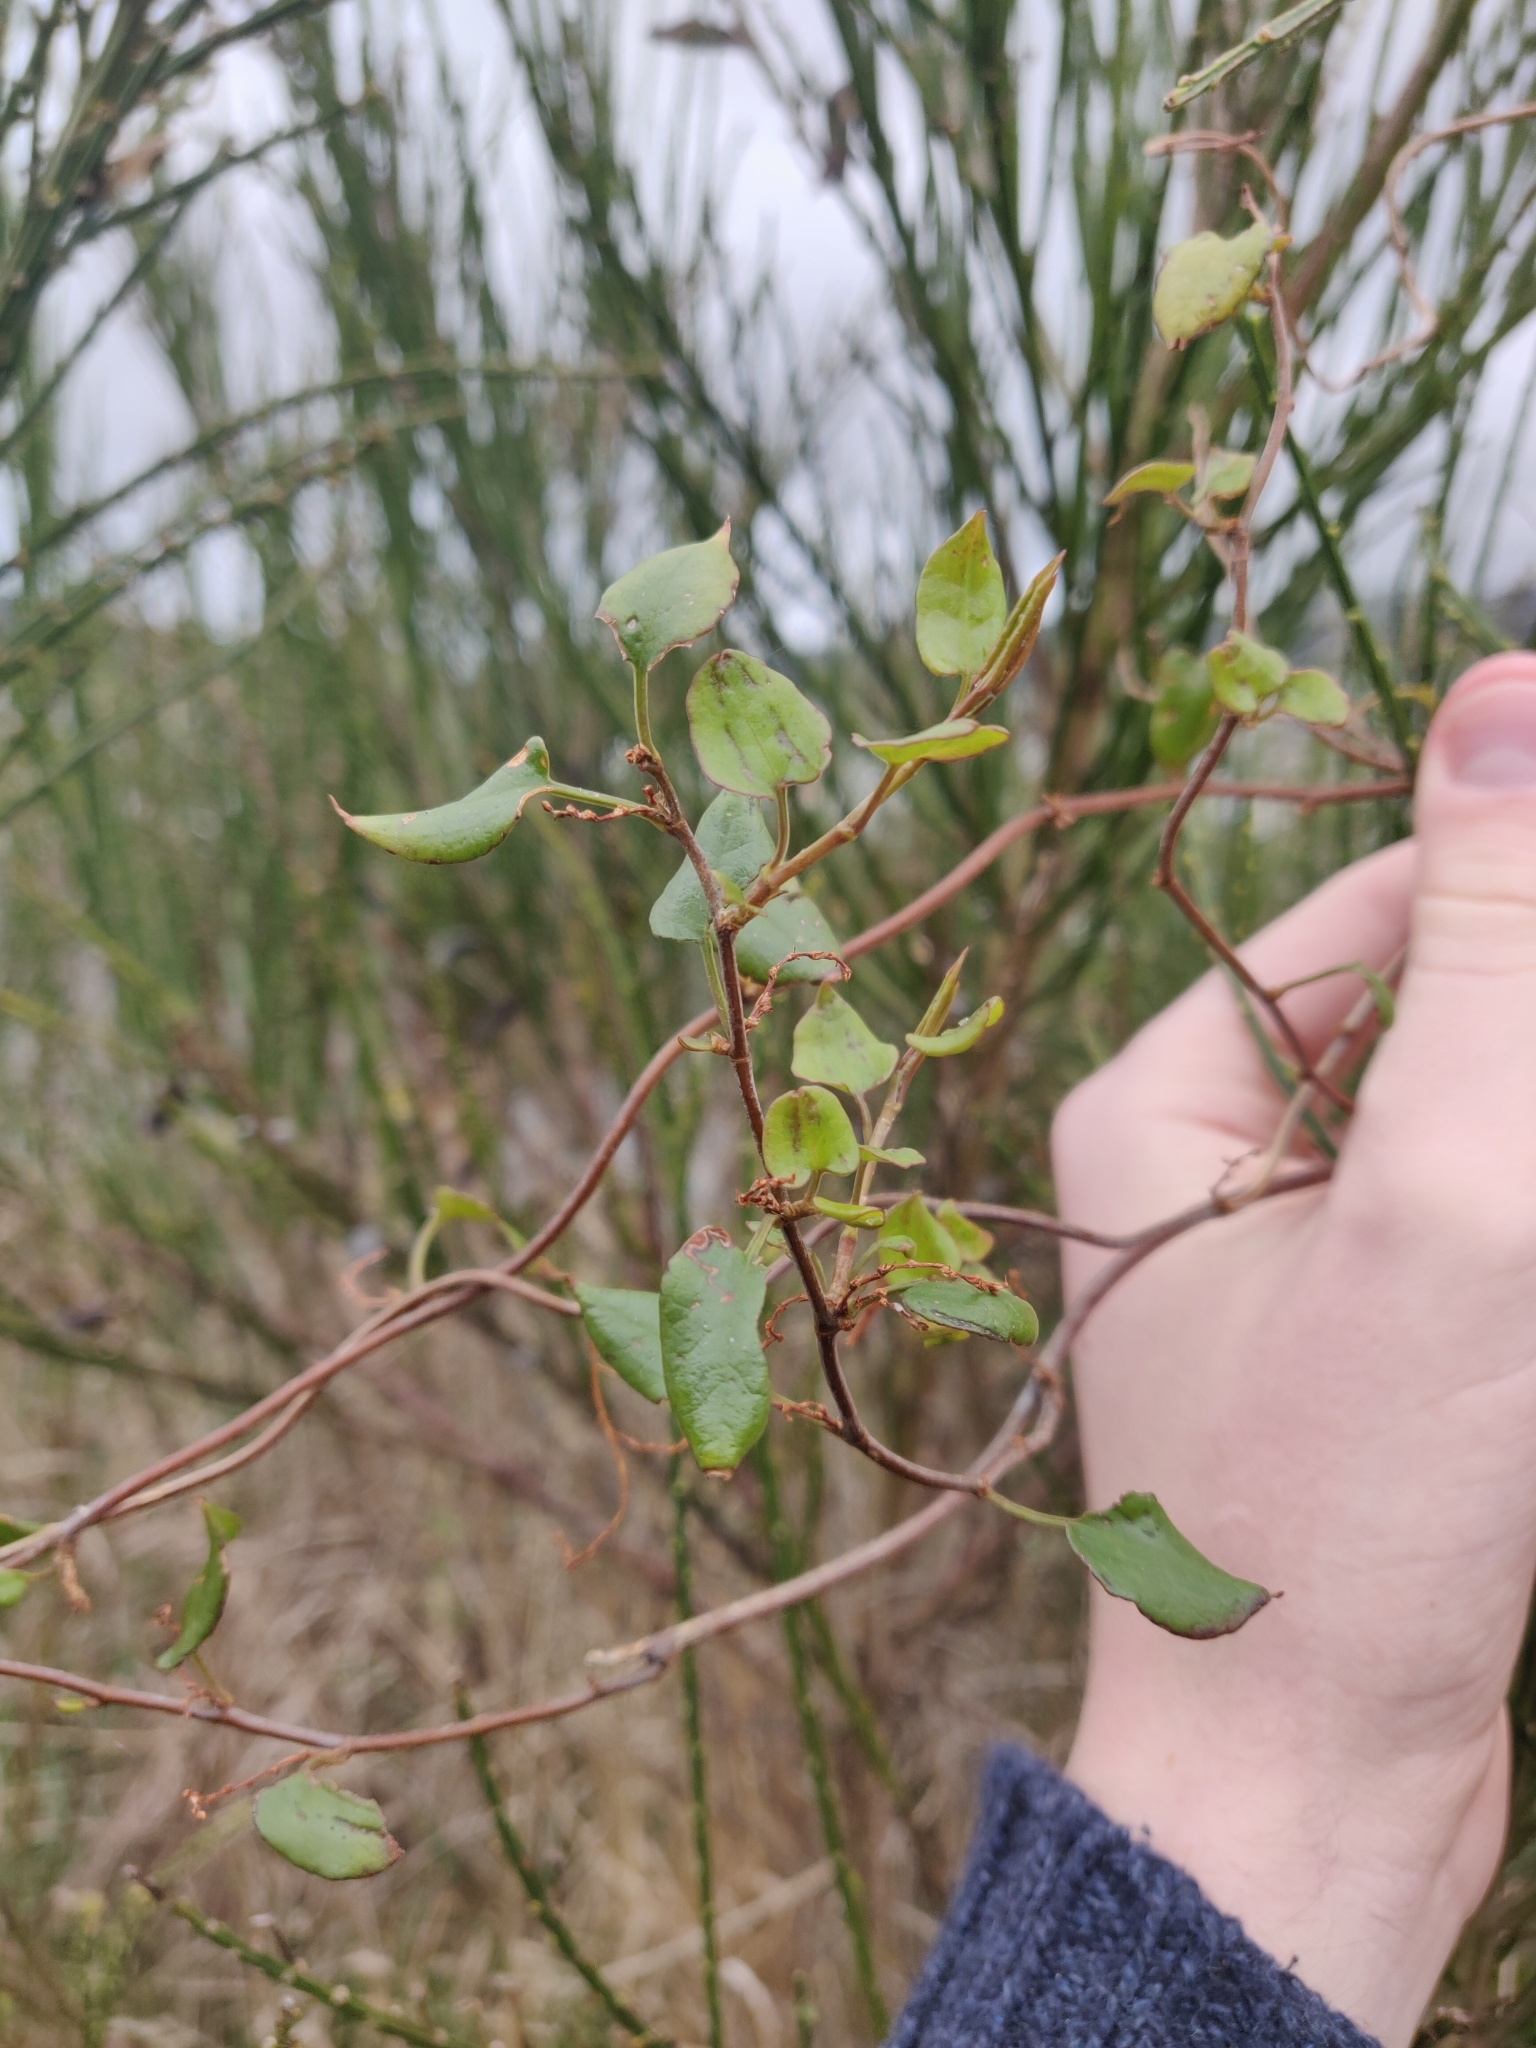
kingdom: Plantae
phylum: Tracheophyta
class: Magnoliopsida
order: Caryophyllales
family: Polygonaceae
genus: Muehlenbeckia
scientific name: Muehlenbeckia complexa
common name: Wireplant
